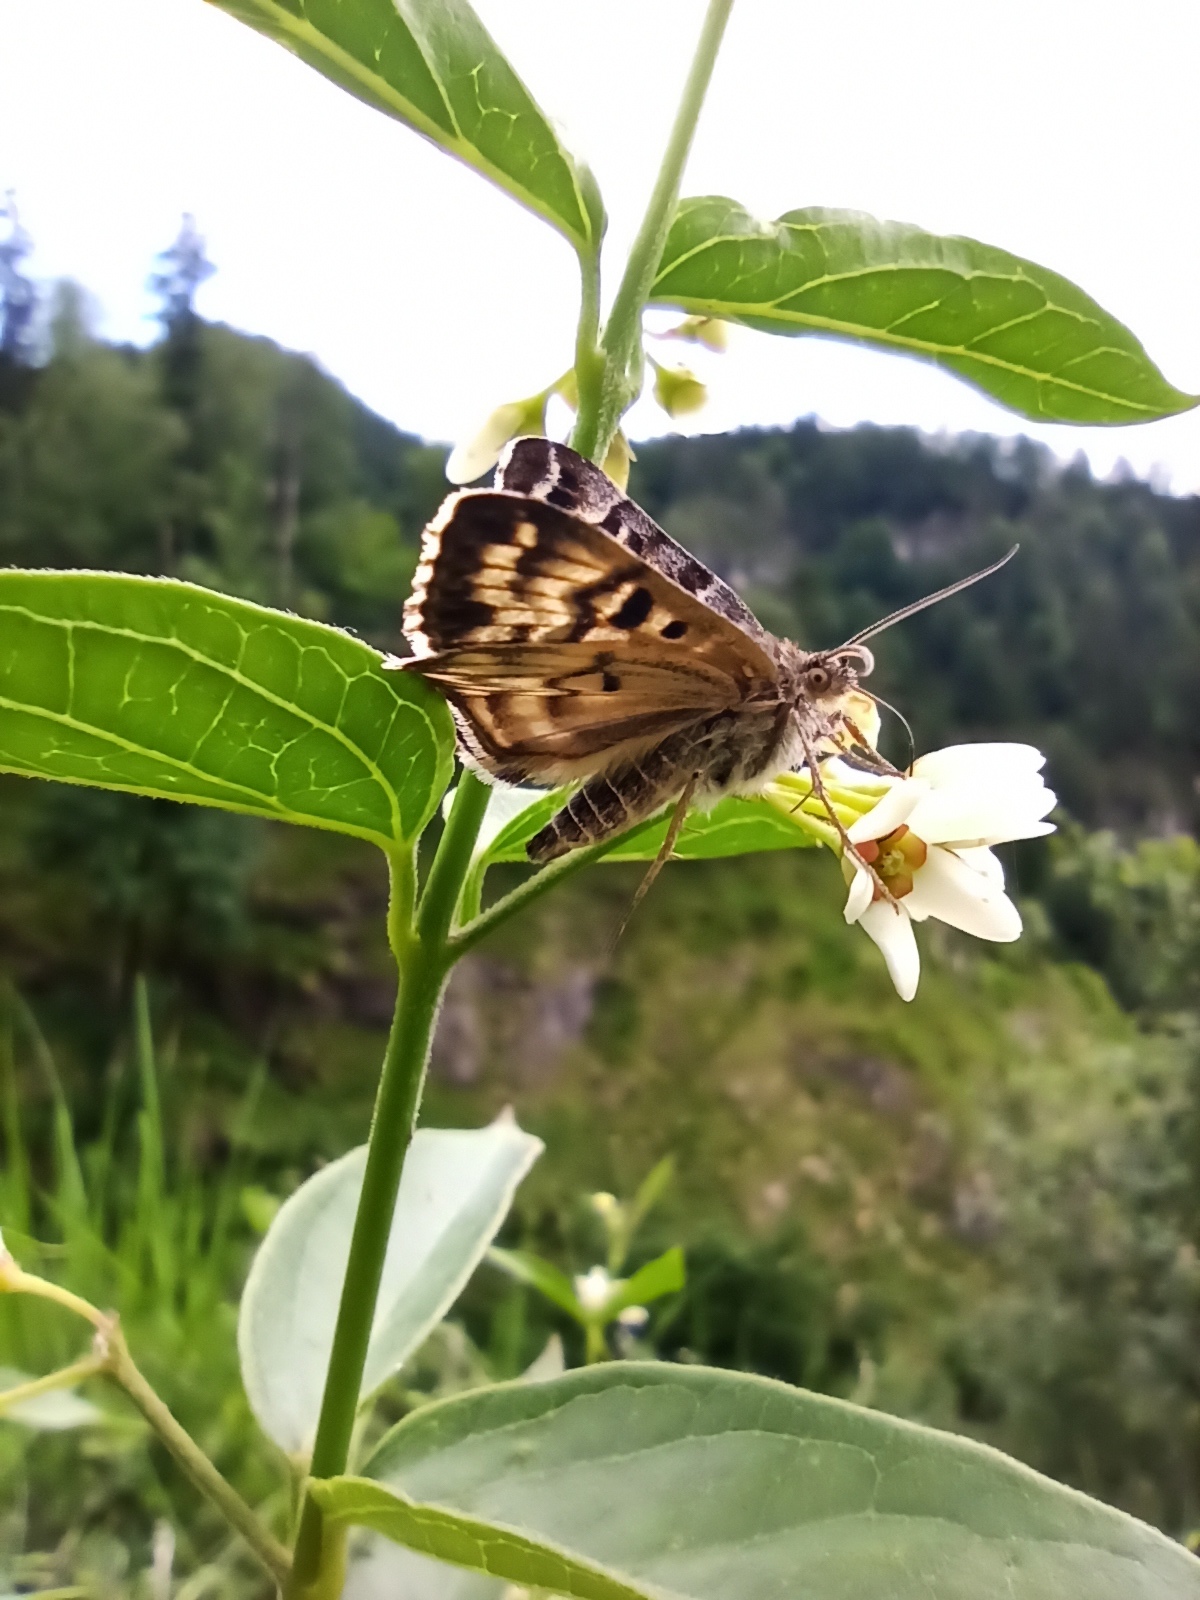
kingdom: Animalia
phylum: Arthropoda
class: Insecta
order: Lepidoptera
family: Erebidae
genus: Callistege
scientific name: Callistege mi
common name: Mother shipton
